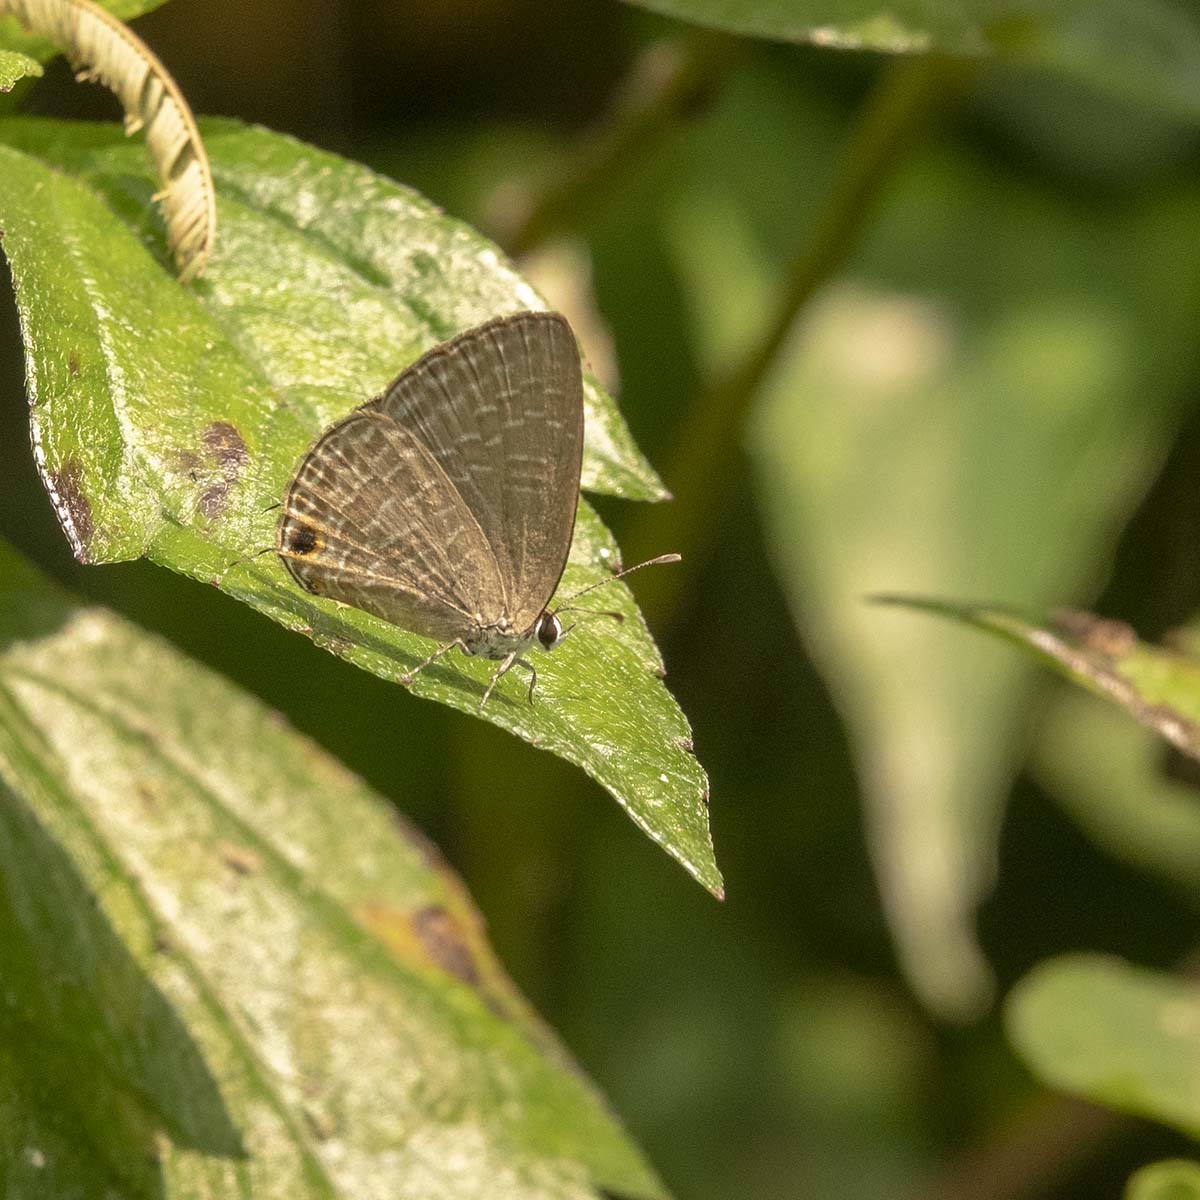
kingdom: Animalia
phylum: Arthropoda
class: Insecta
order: Lepidoptera
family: Lycaenidae
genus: Jamides
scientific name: Jamides bochus
